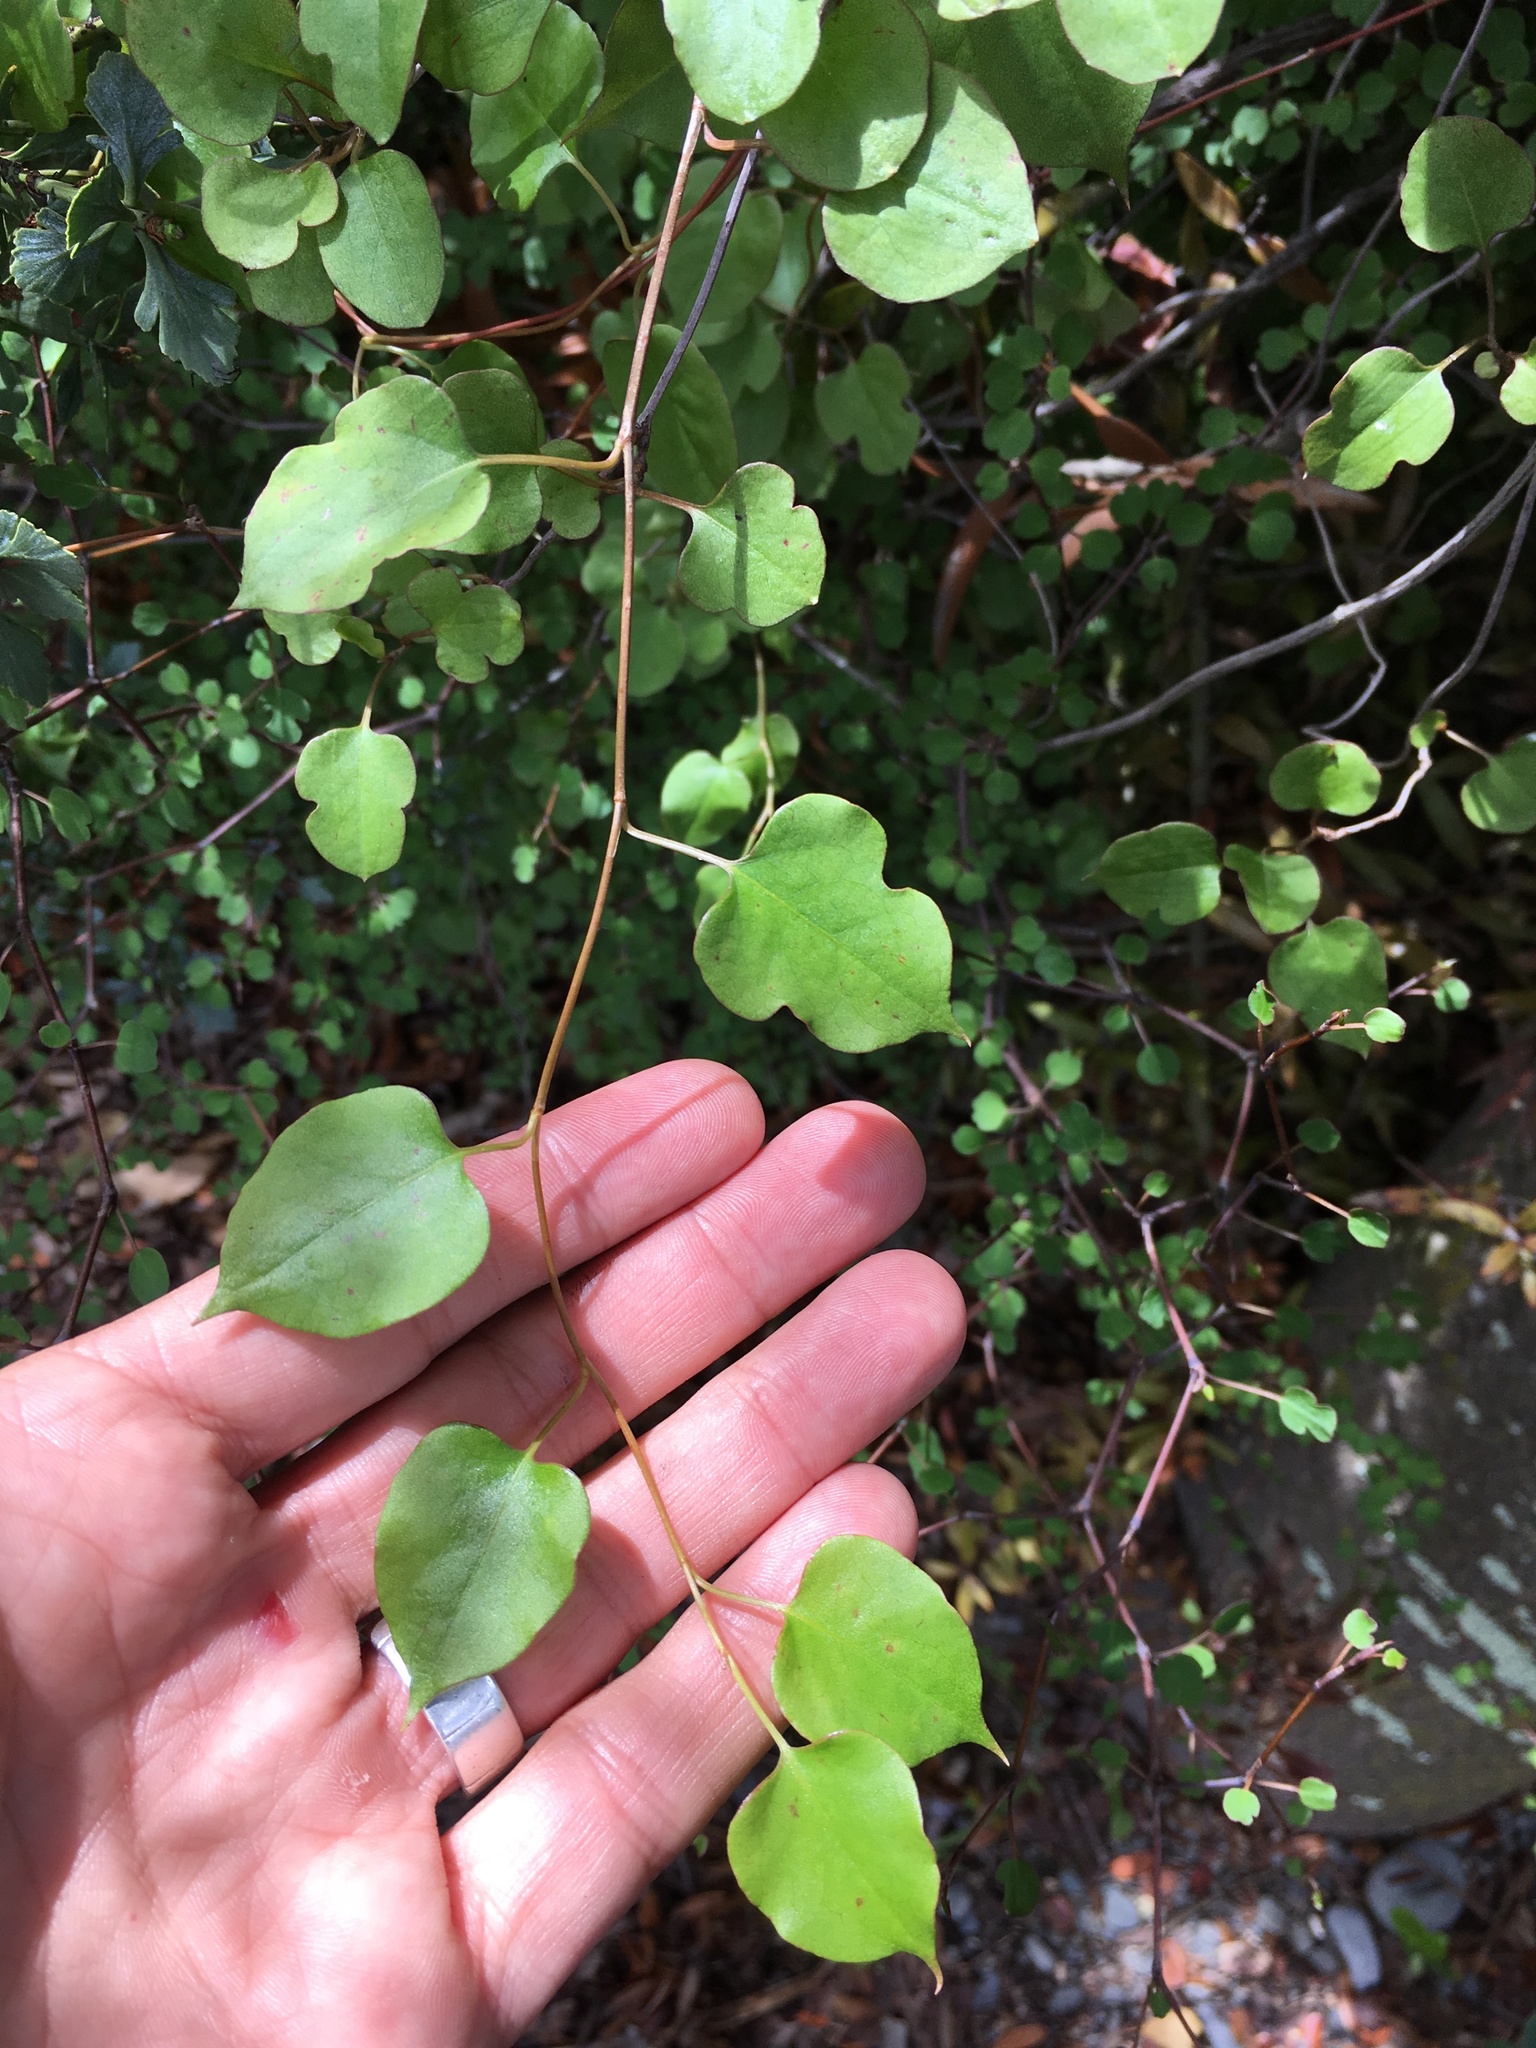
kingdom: Plantae
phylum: Tracheophyta
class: Magnoliopsida
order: Caryophyllales
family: Polygonaceae
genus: Muehlenbeckia
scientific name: Muehlenbeckia australis
